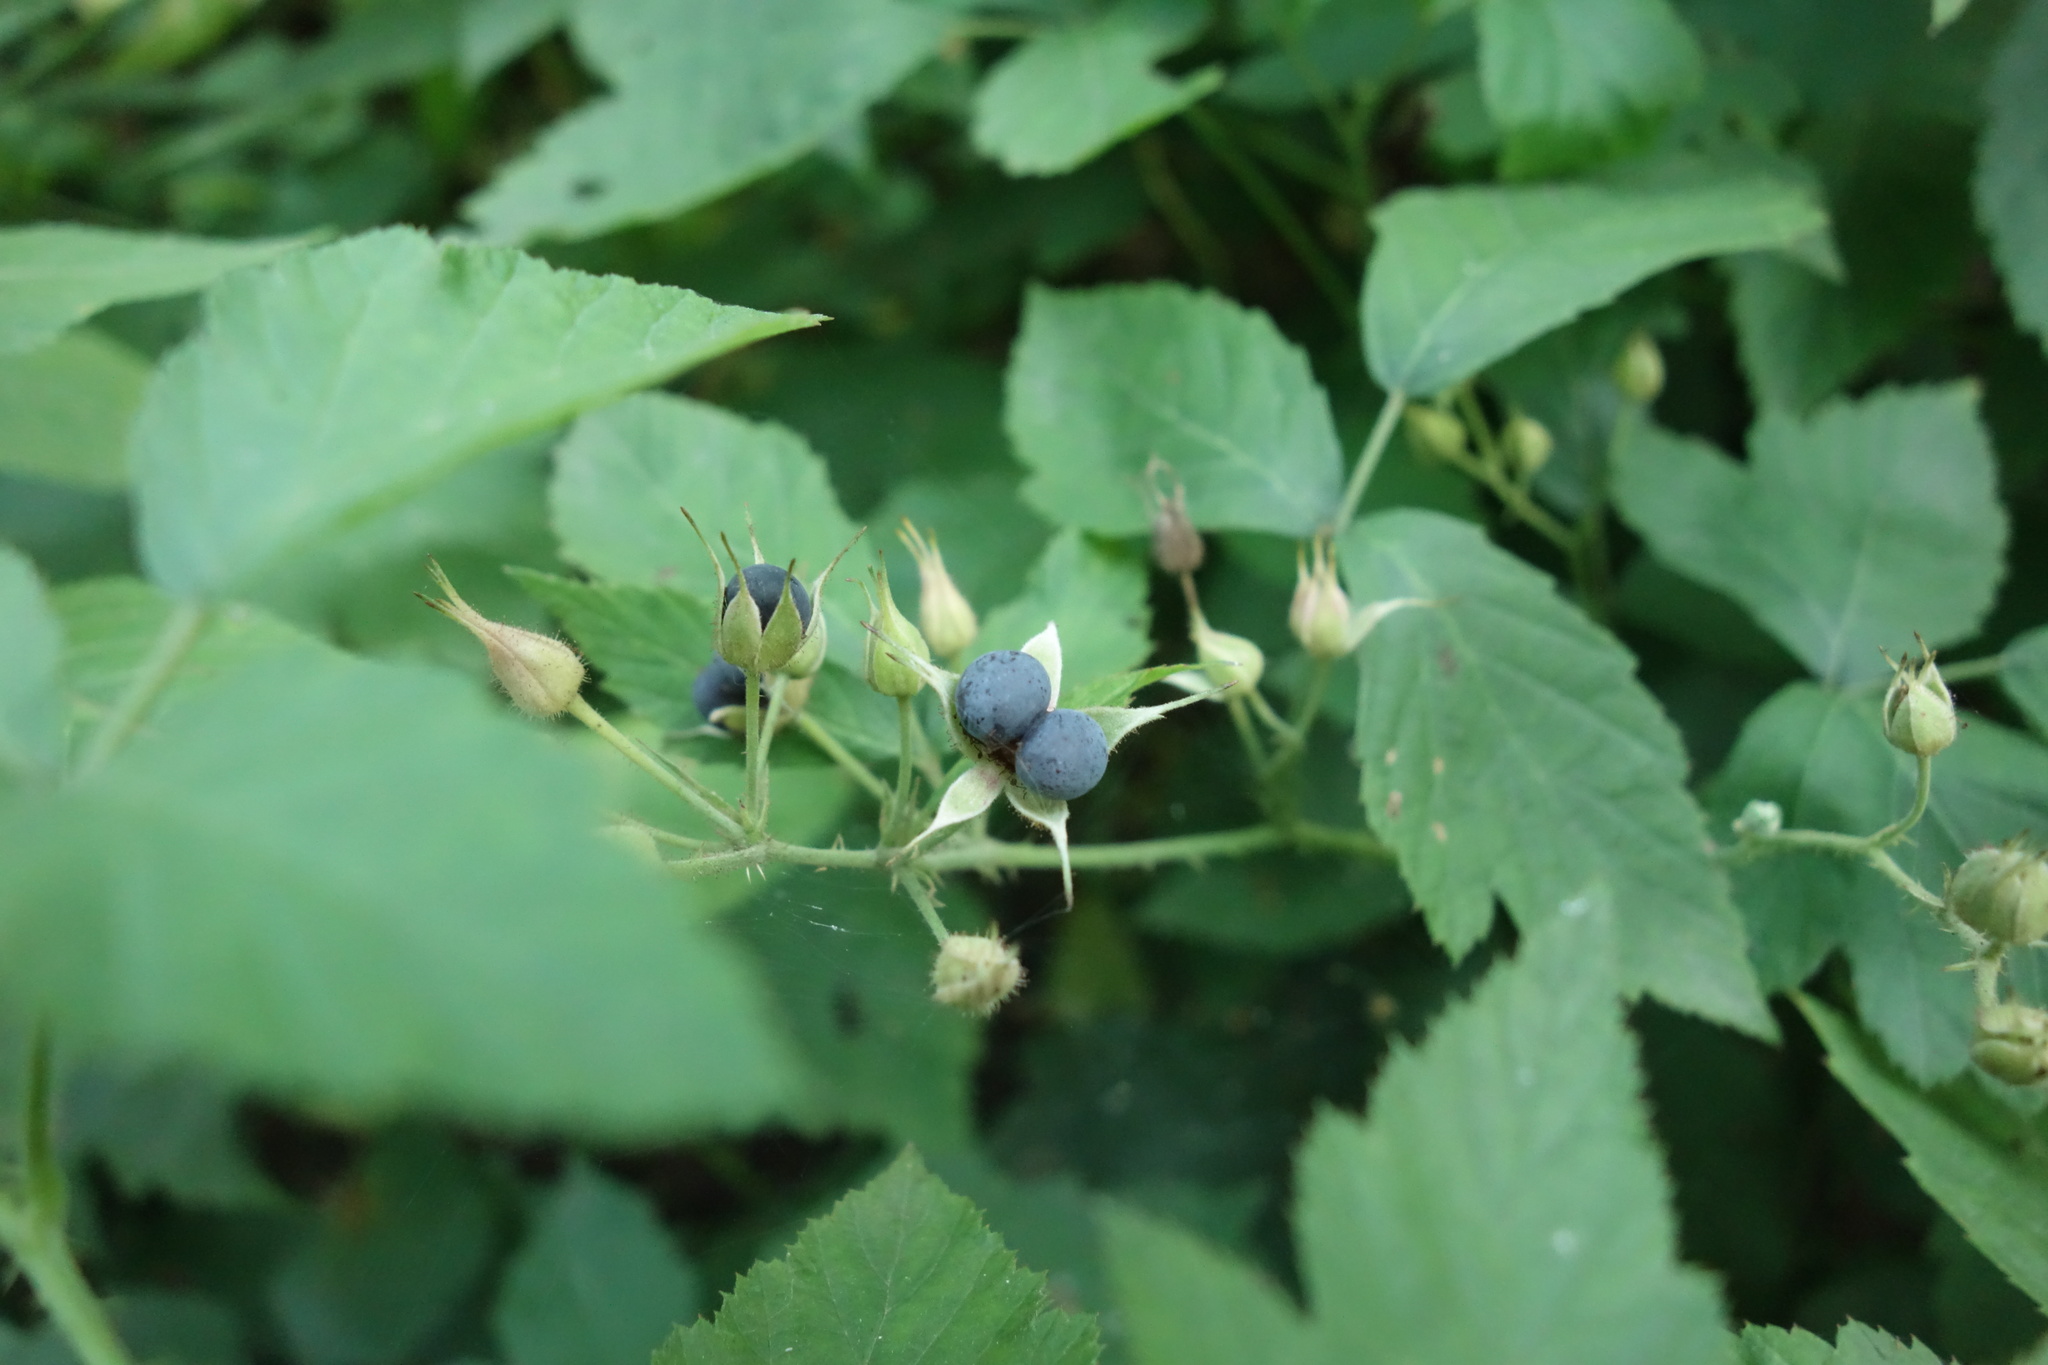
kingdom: Plantae
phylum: Tracheophyta
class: Magnoliopsida
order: Rosales
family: Rosaceae
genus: Rubus
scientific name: Rubus caesius
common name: Dewberry
